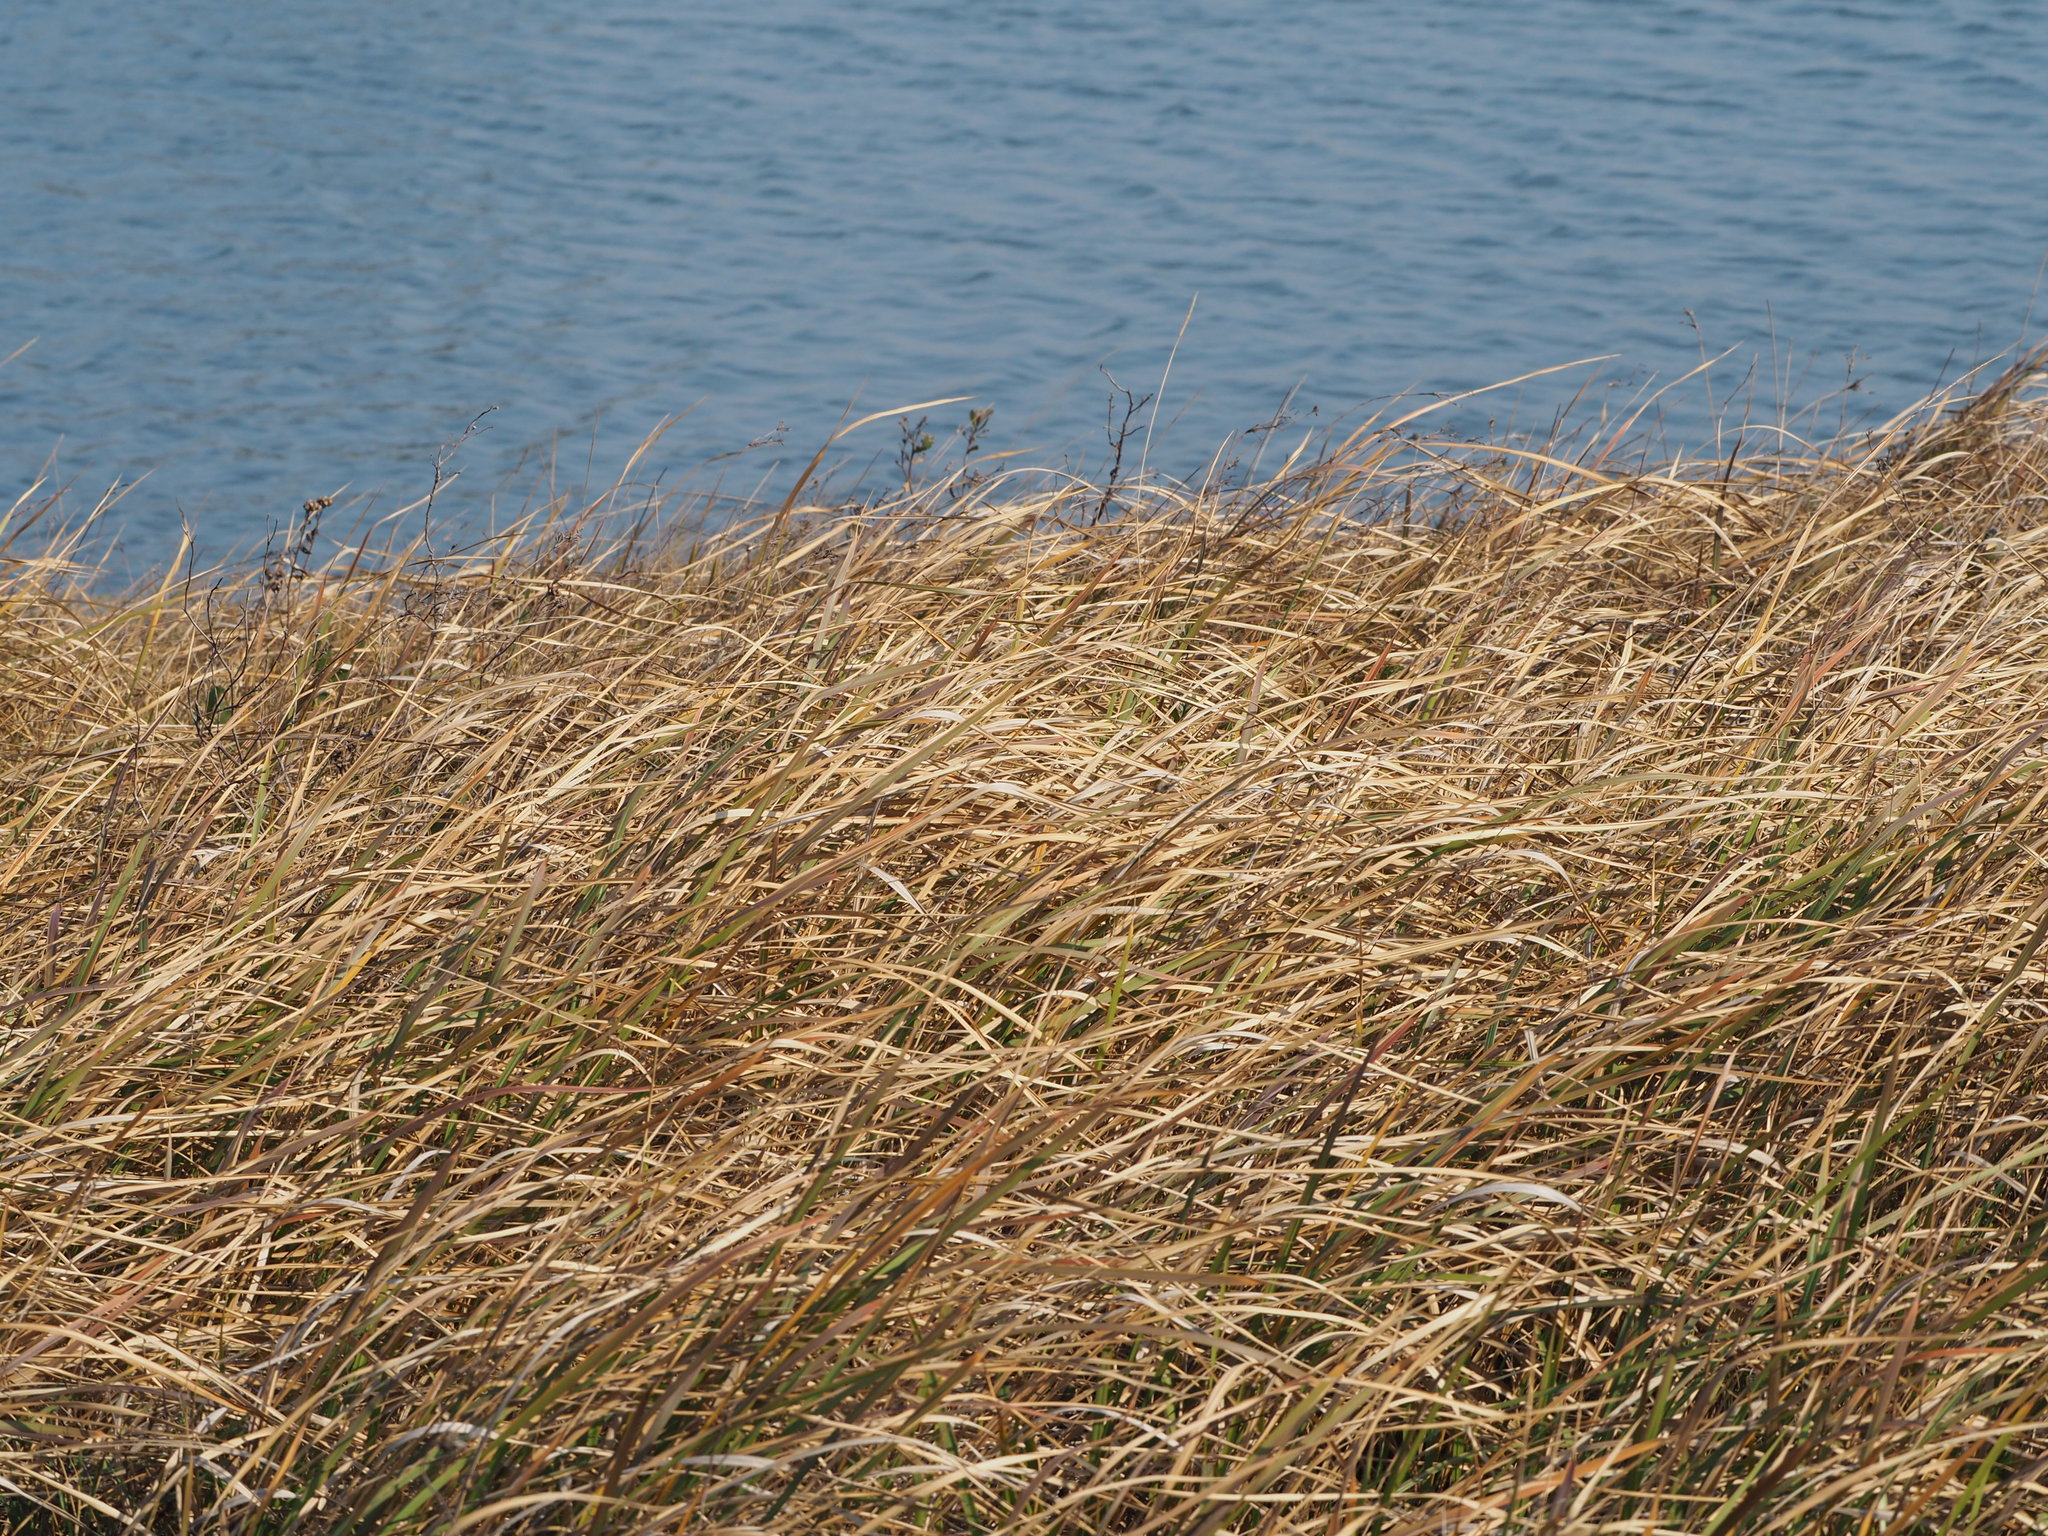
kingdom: Plantae
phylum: Tracheophyta
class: Liliopsida
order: Poales
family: Poaceae
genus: Imperata
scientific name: Imperata cylindrica
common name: Cogongrass
